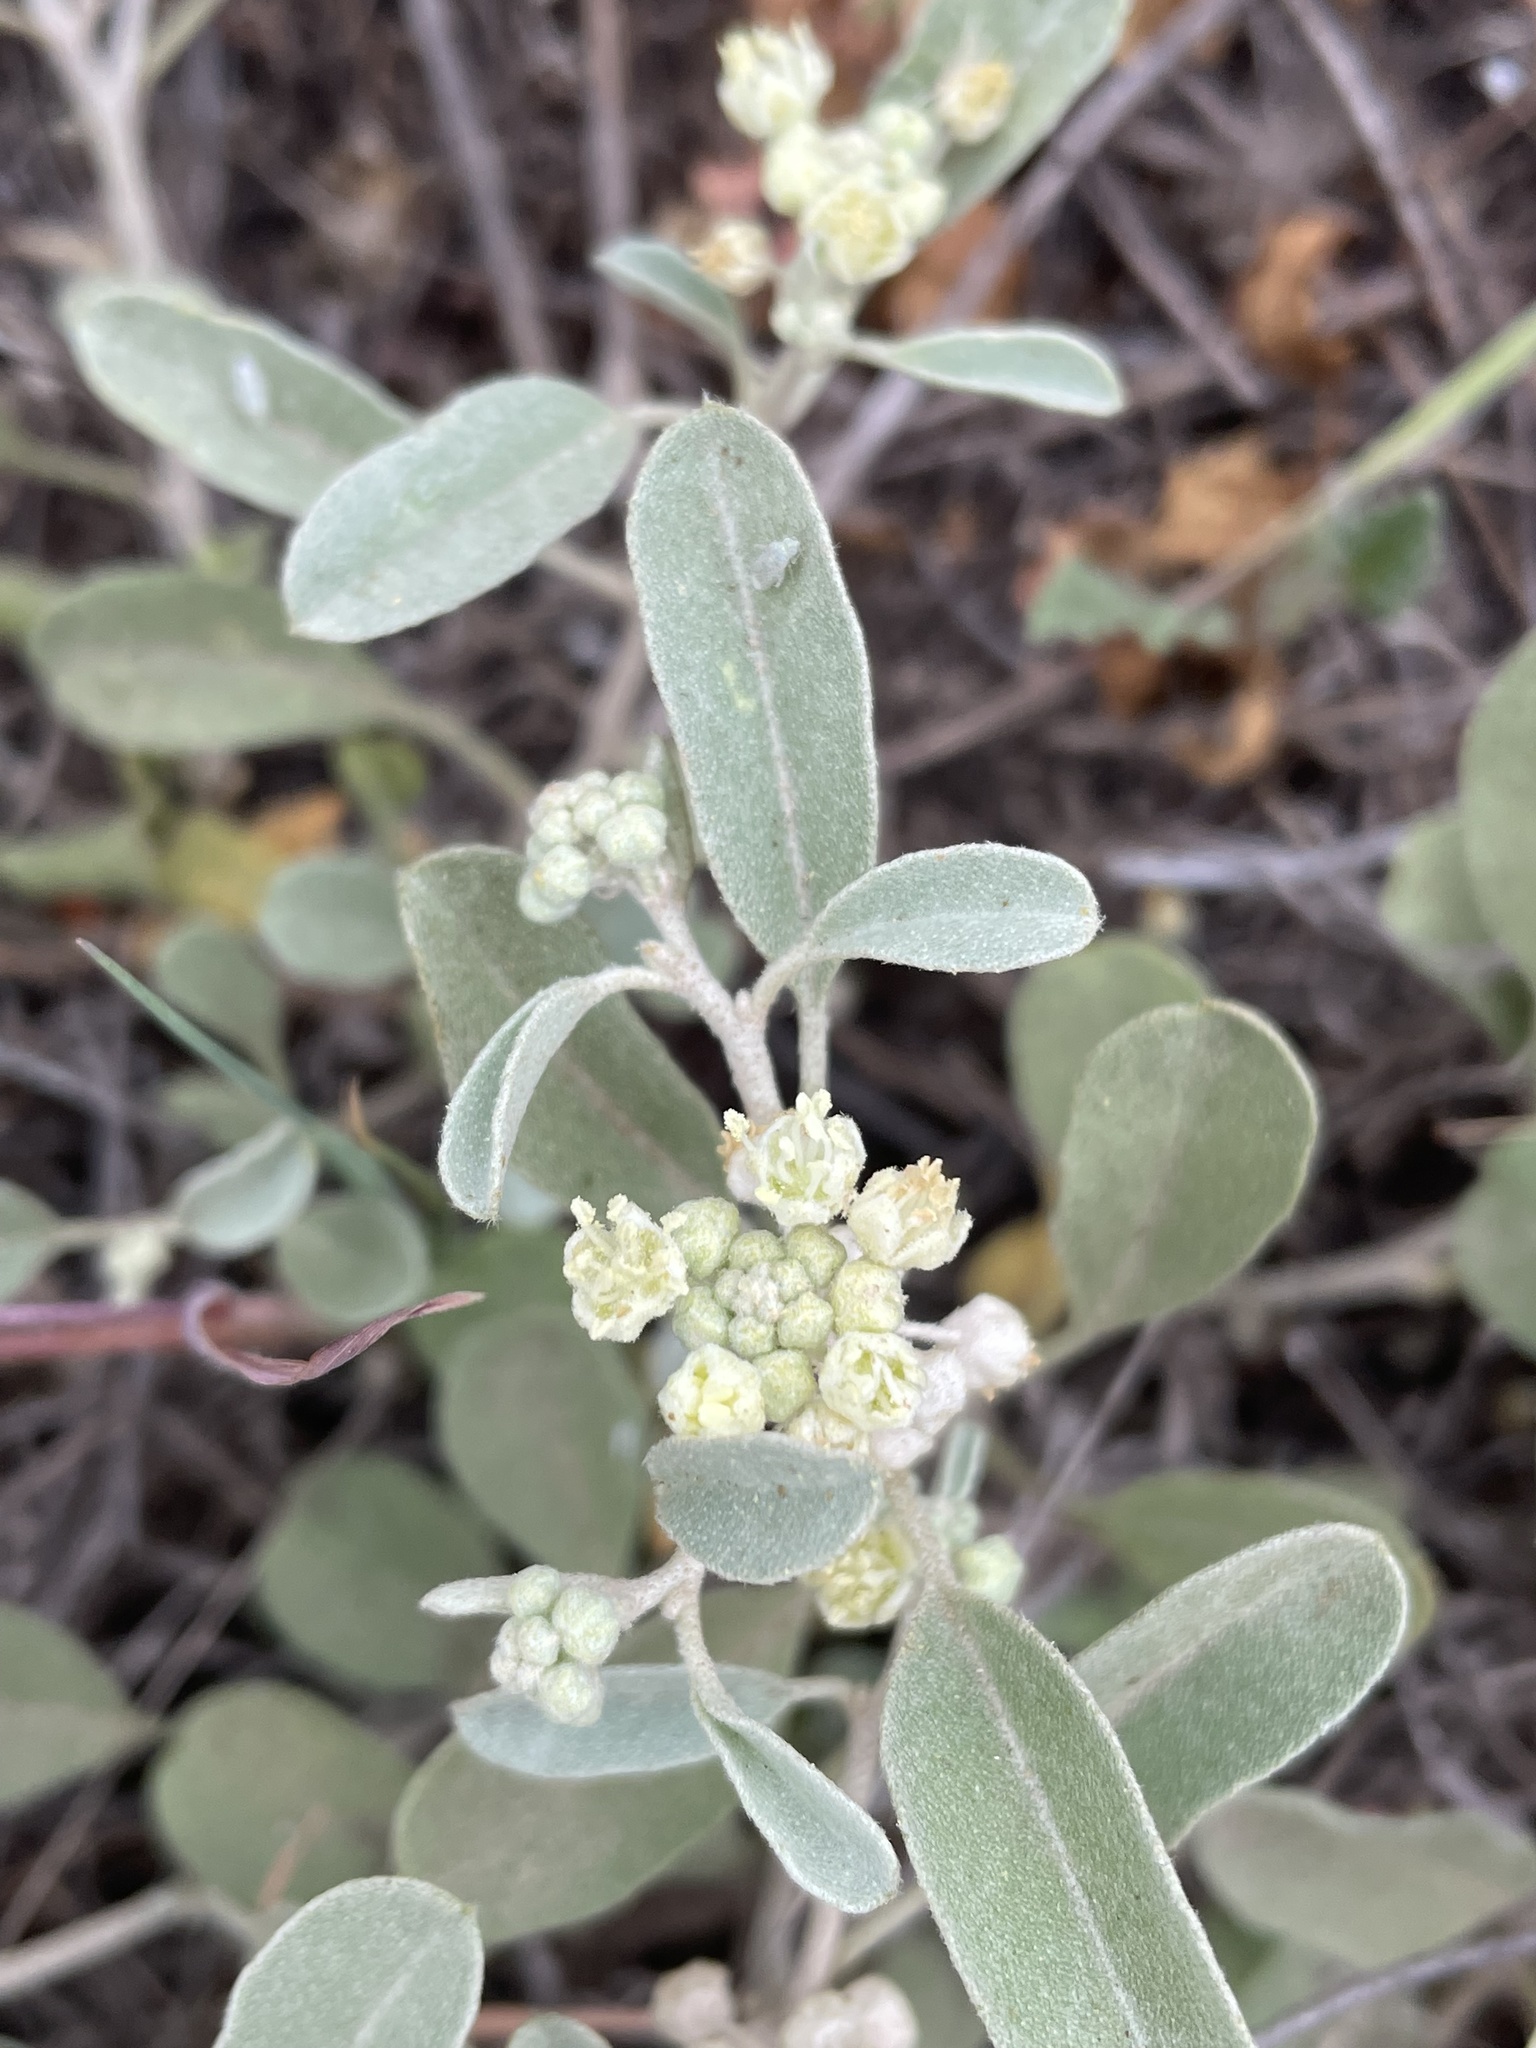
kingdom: Plantae
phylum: Tracheophyta
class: Magnoliopsida
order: Malpighiales
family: Euphorbiaceae
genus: Croton
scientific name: Croton californicus
